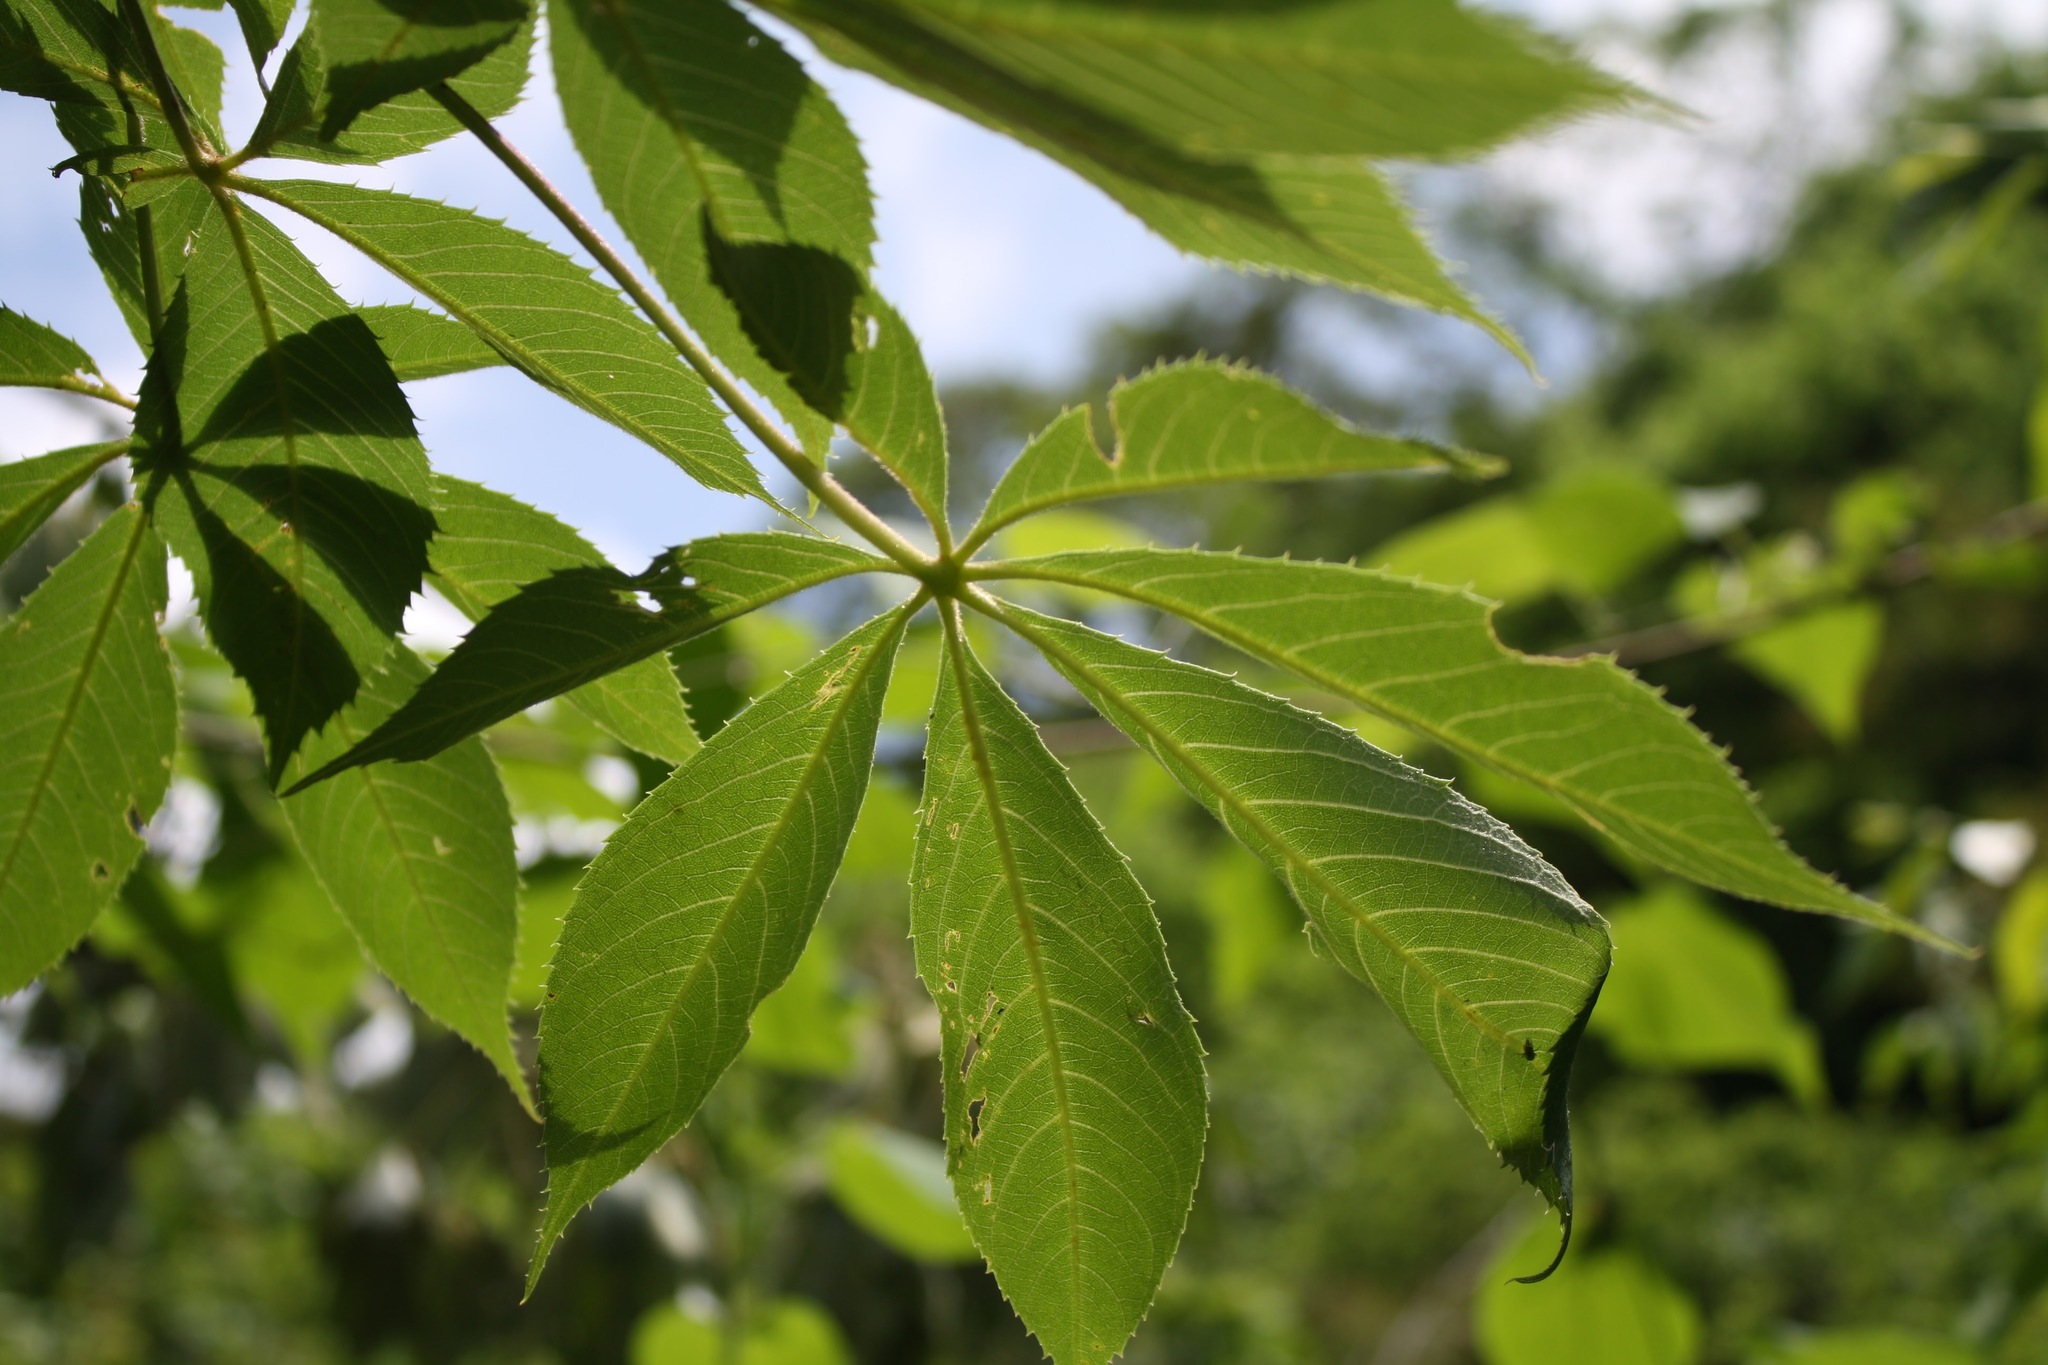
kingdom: Plantae
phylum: Tracheophyta
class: Magnoliopsida
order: Malvales
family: Malvaceae
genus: Ceiba
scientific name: Ceiba aesculifolia
